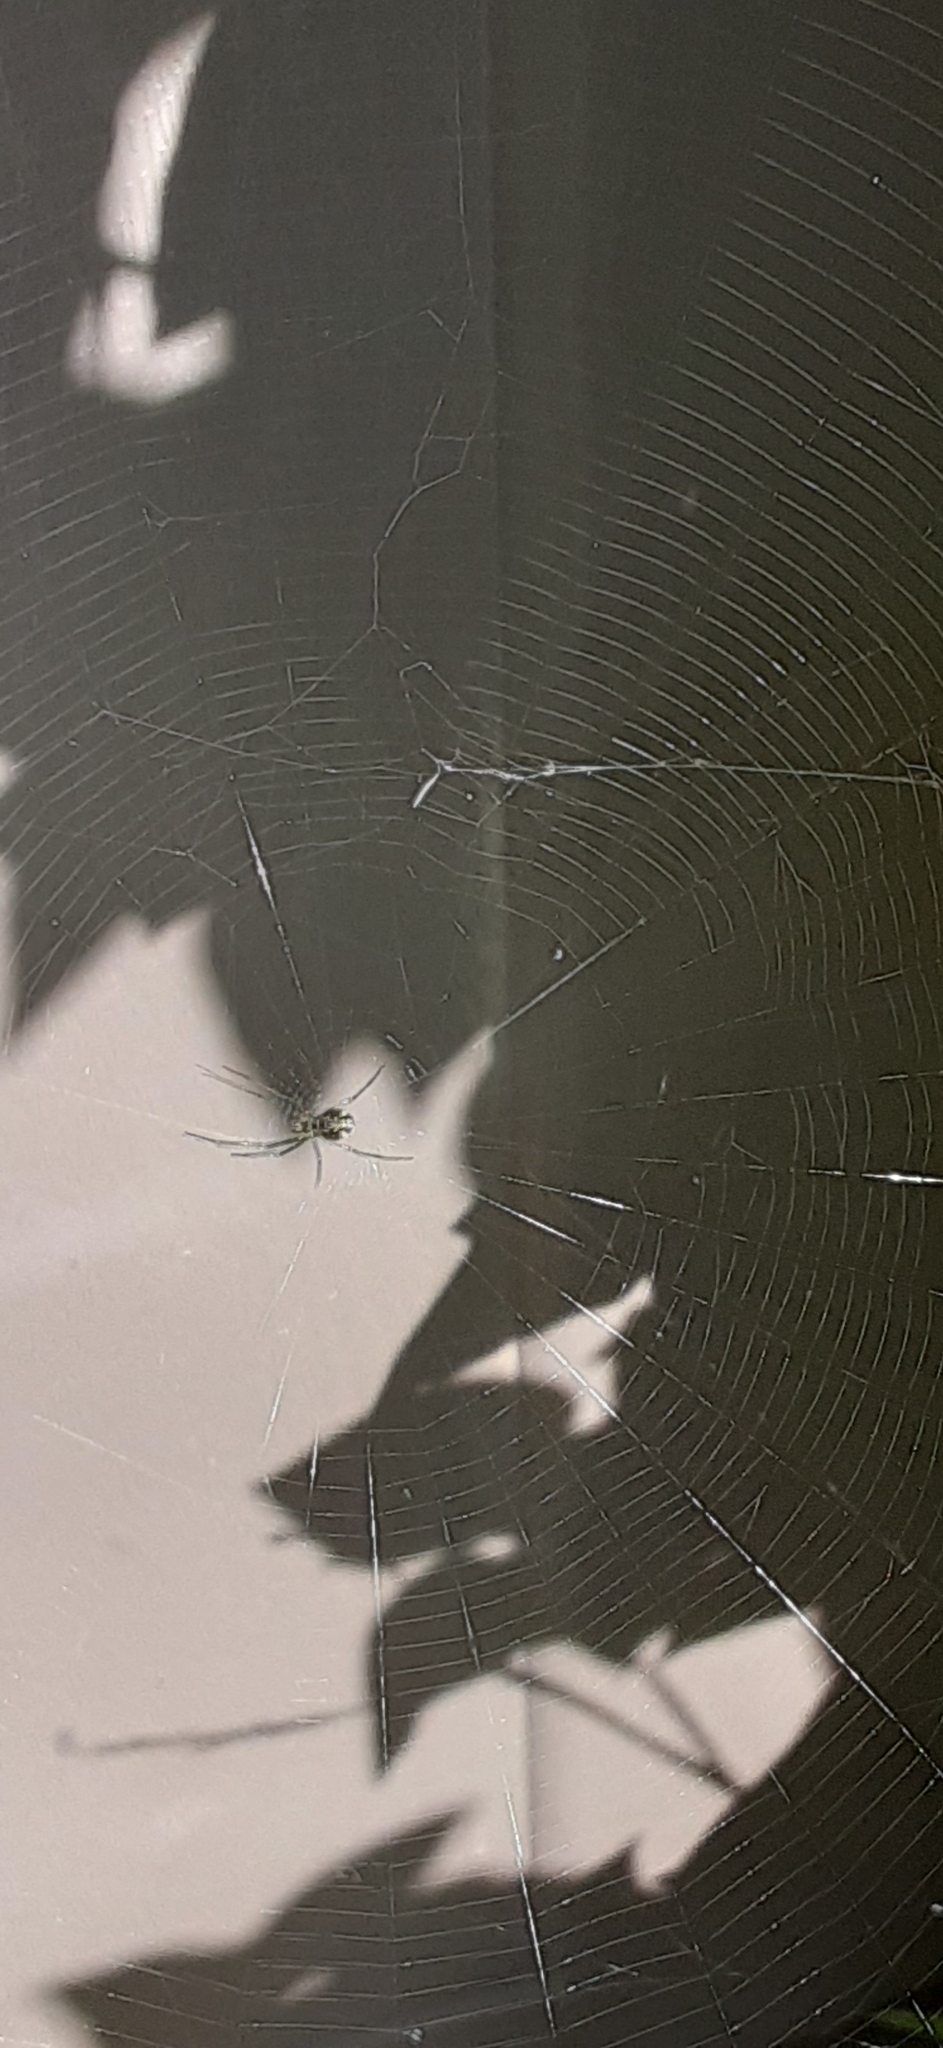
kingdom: Animalia
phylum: Arthropoda
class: Arachnida
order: Araneae
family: Tetragnathidae
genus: Leucauge
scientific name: Leucauge venusta
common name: Longjawed orb weavers
